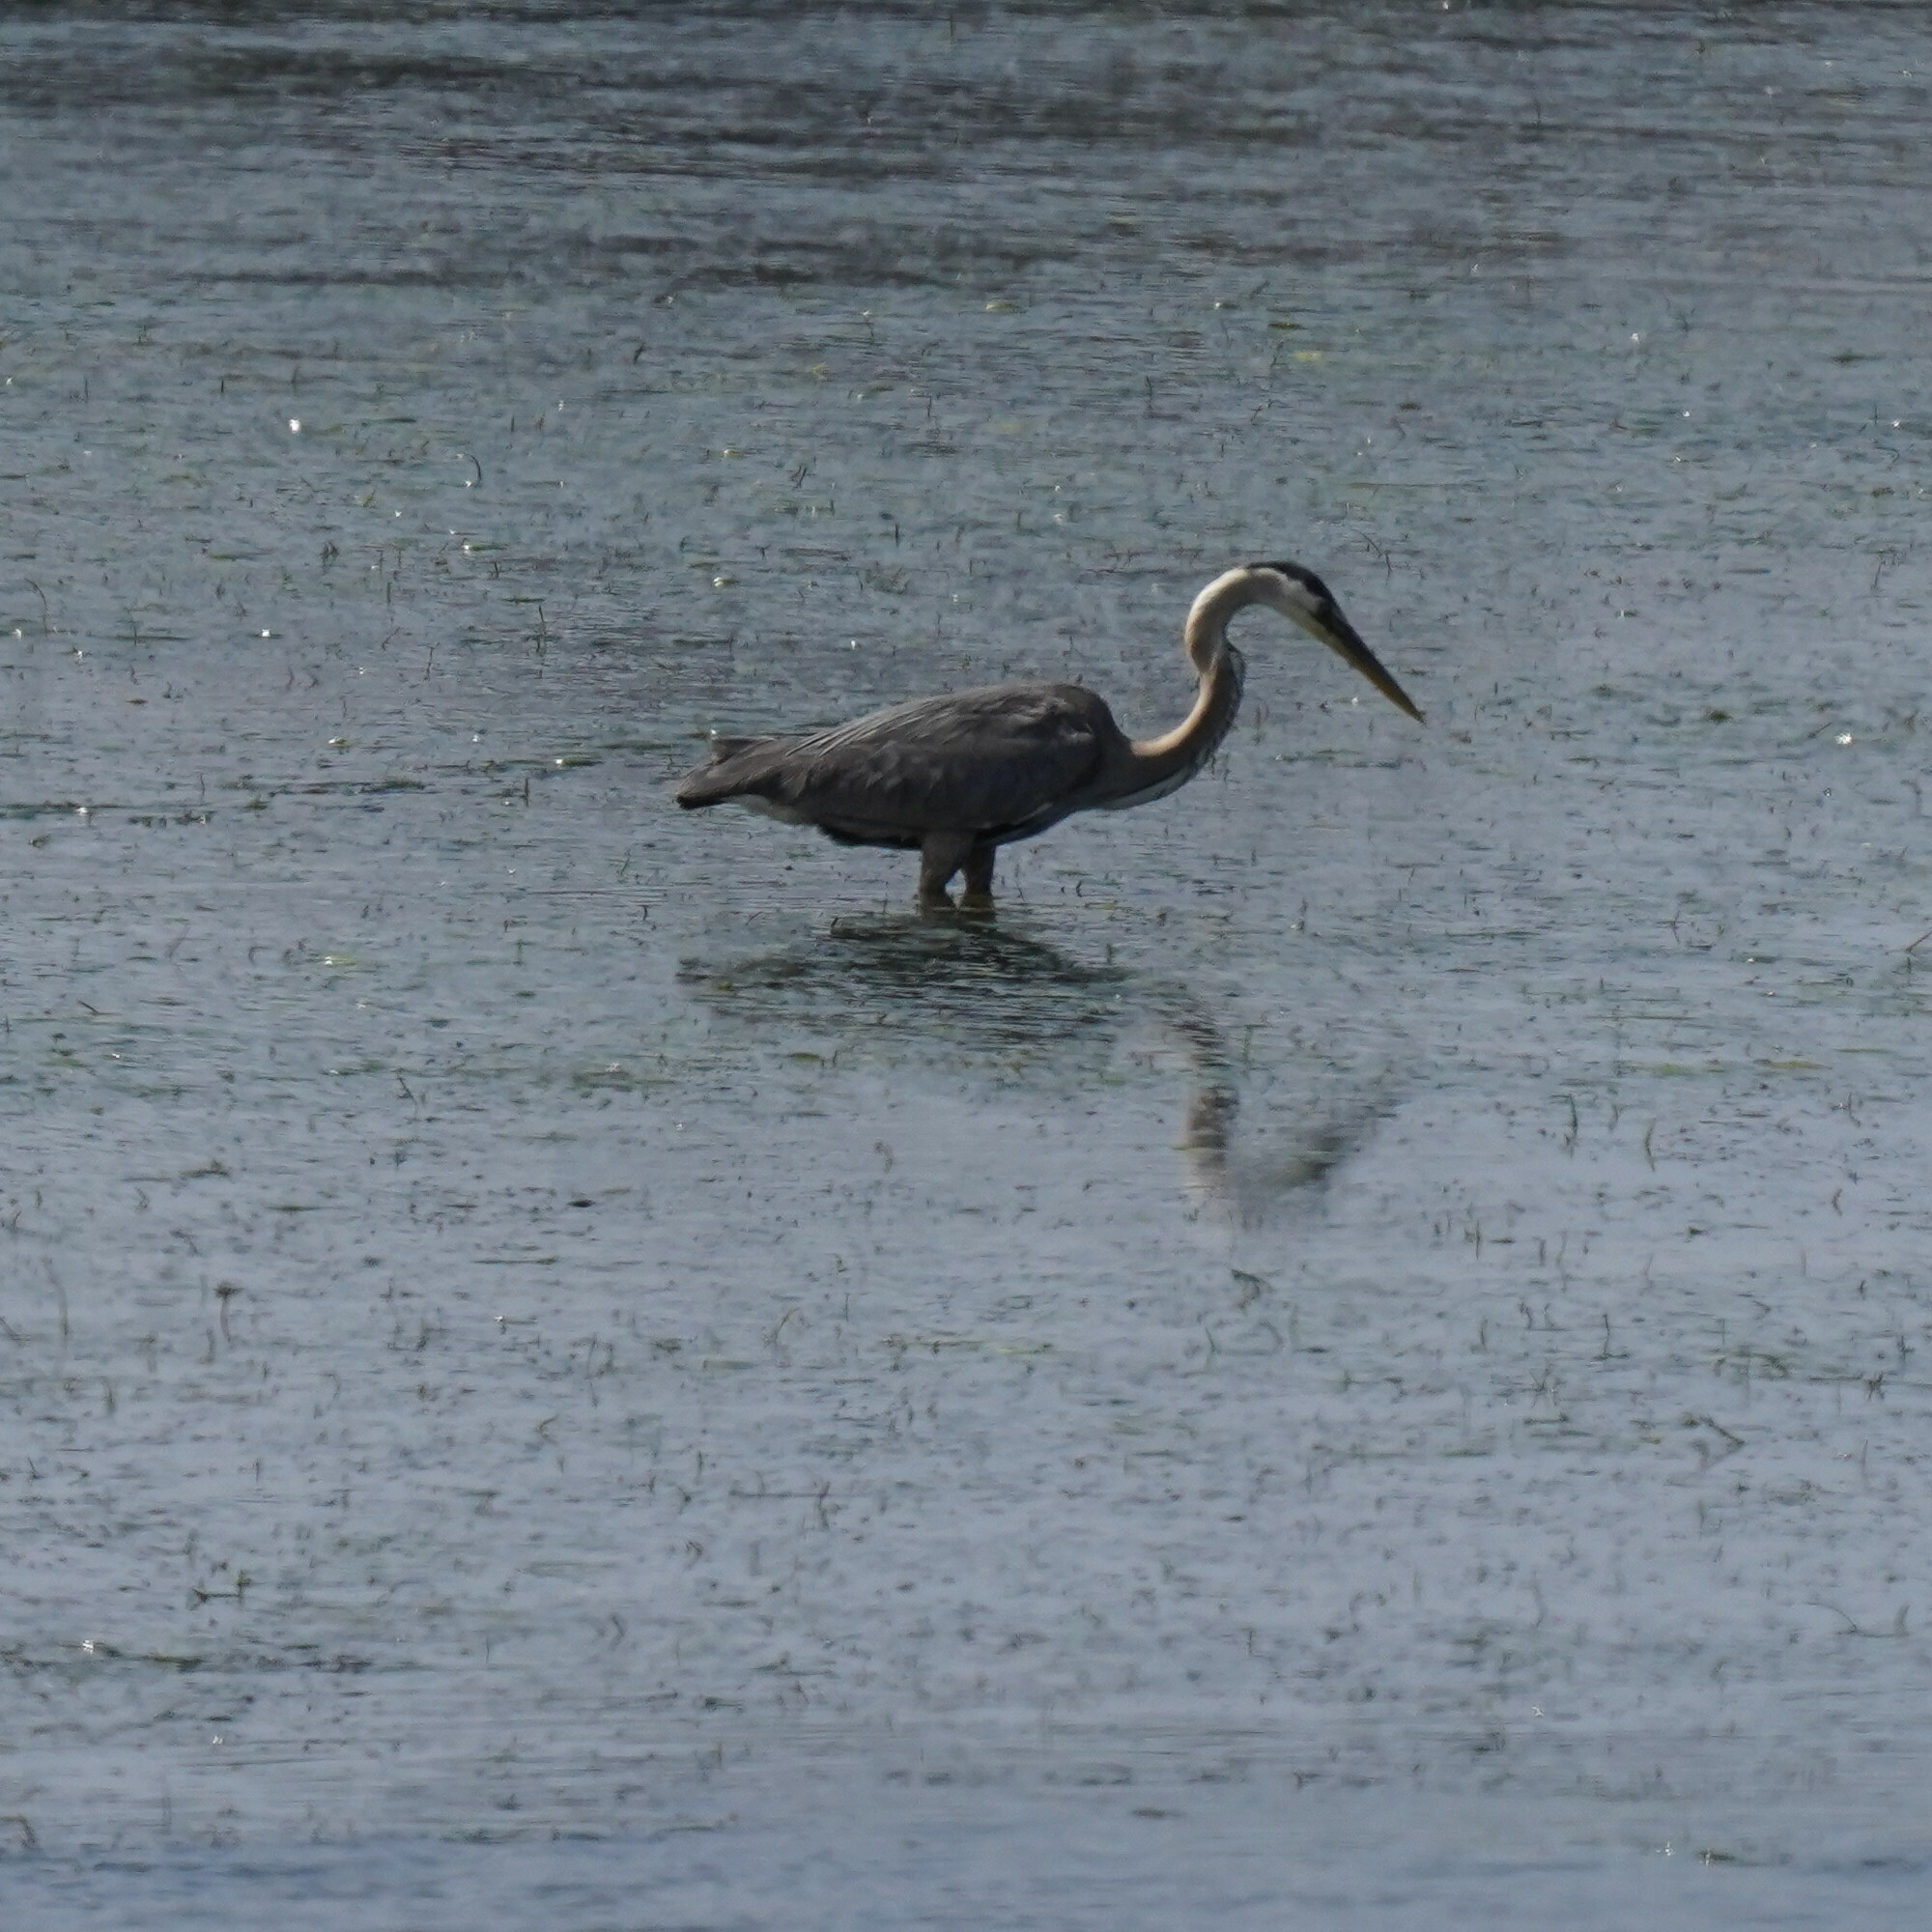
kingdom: Animalia
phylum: Chordata
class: Aves
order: Pelecaniformes
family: Ardeidae
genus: Ardea
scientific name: Ardea herodias
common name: Great blue heron
